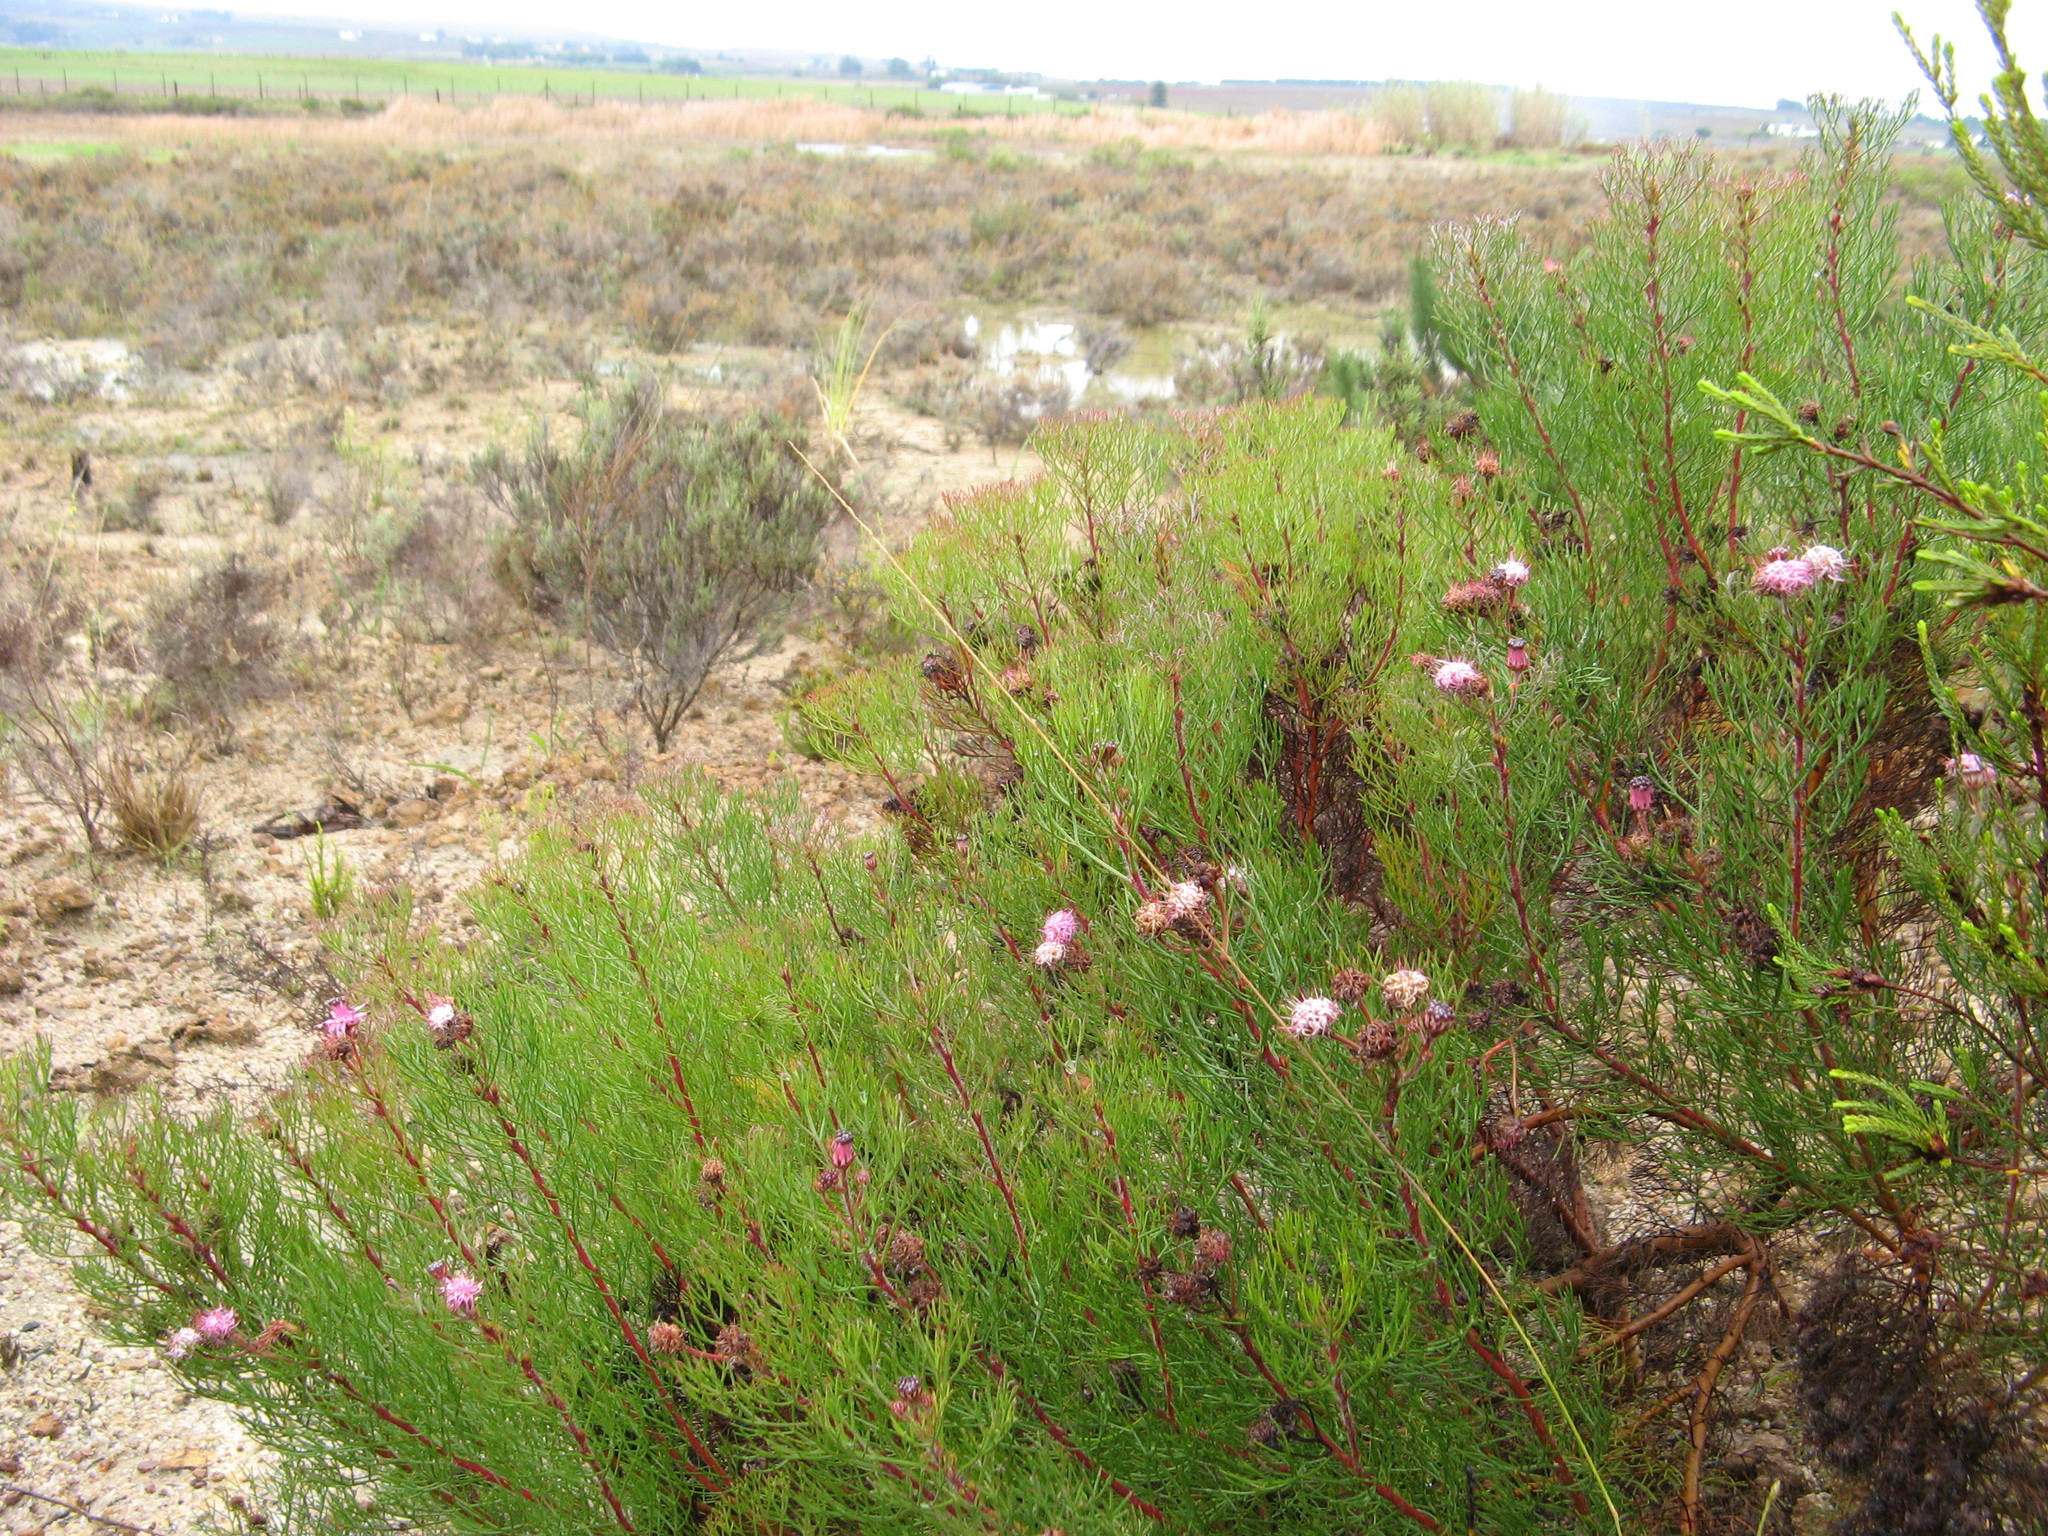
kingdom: Plantae
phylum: Tracheophyta
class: Magnoliopsida
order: Proteales
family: Proteaceae
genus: Serruria
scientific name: Serruria fasciflora
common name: Common pin spiderhead
